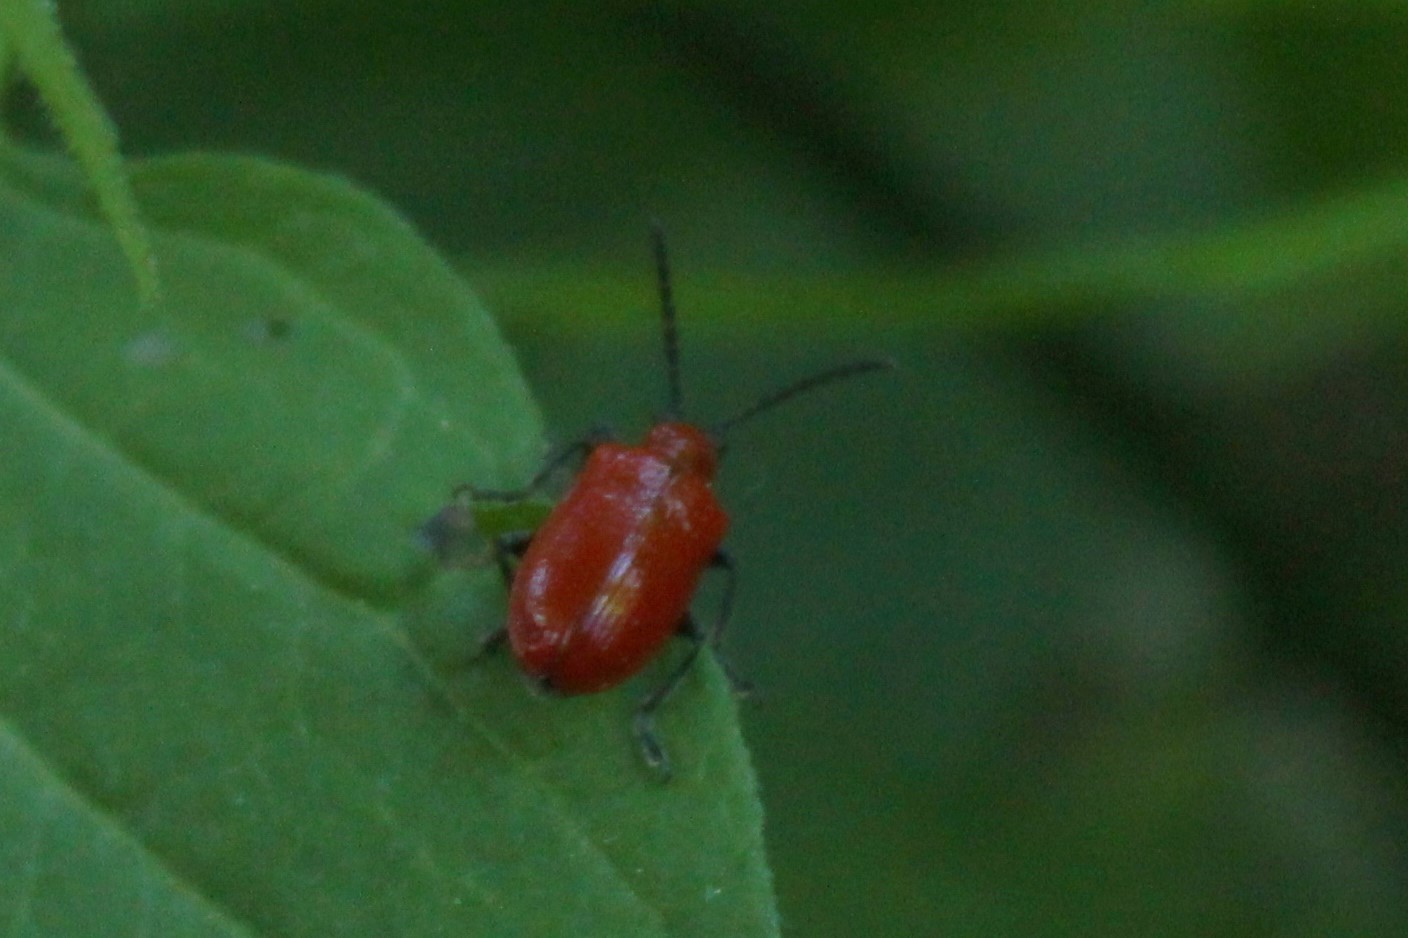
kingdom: Animalia
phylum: Arthropoda
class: Insecta
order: Coleoptera
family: Chrysomelidae
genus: Lilioceris
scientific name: Lilioceris lilii
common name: Lily beetle
